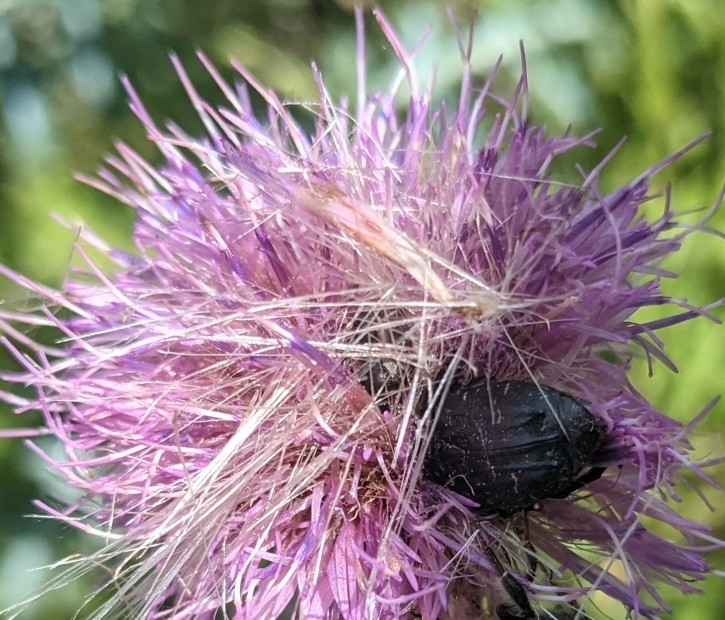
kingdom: Animalia
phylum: Arthropoda
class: Insecta
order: Coleoptera
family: Scarabaeidae
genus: Euphoria
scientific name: Euphoria sepulcralis
